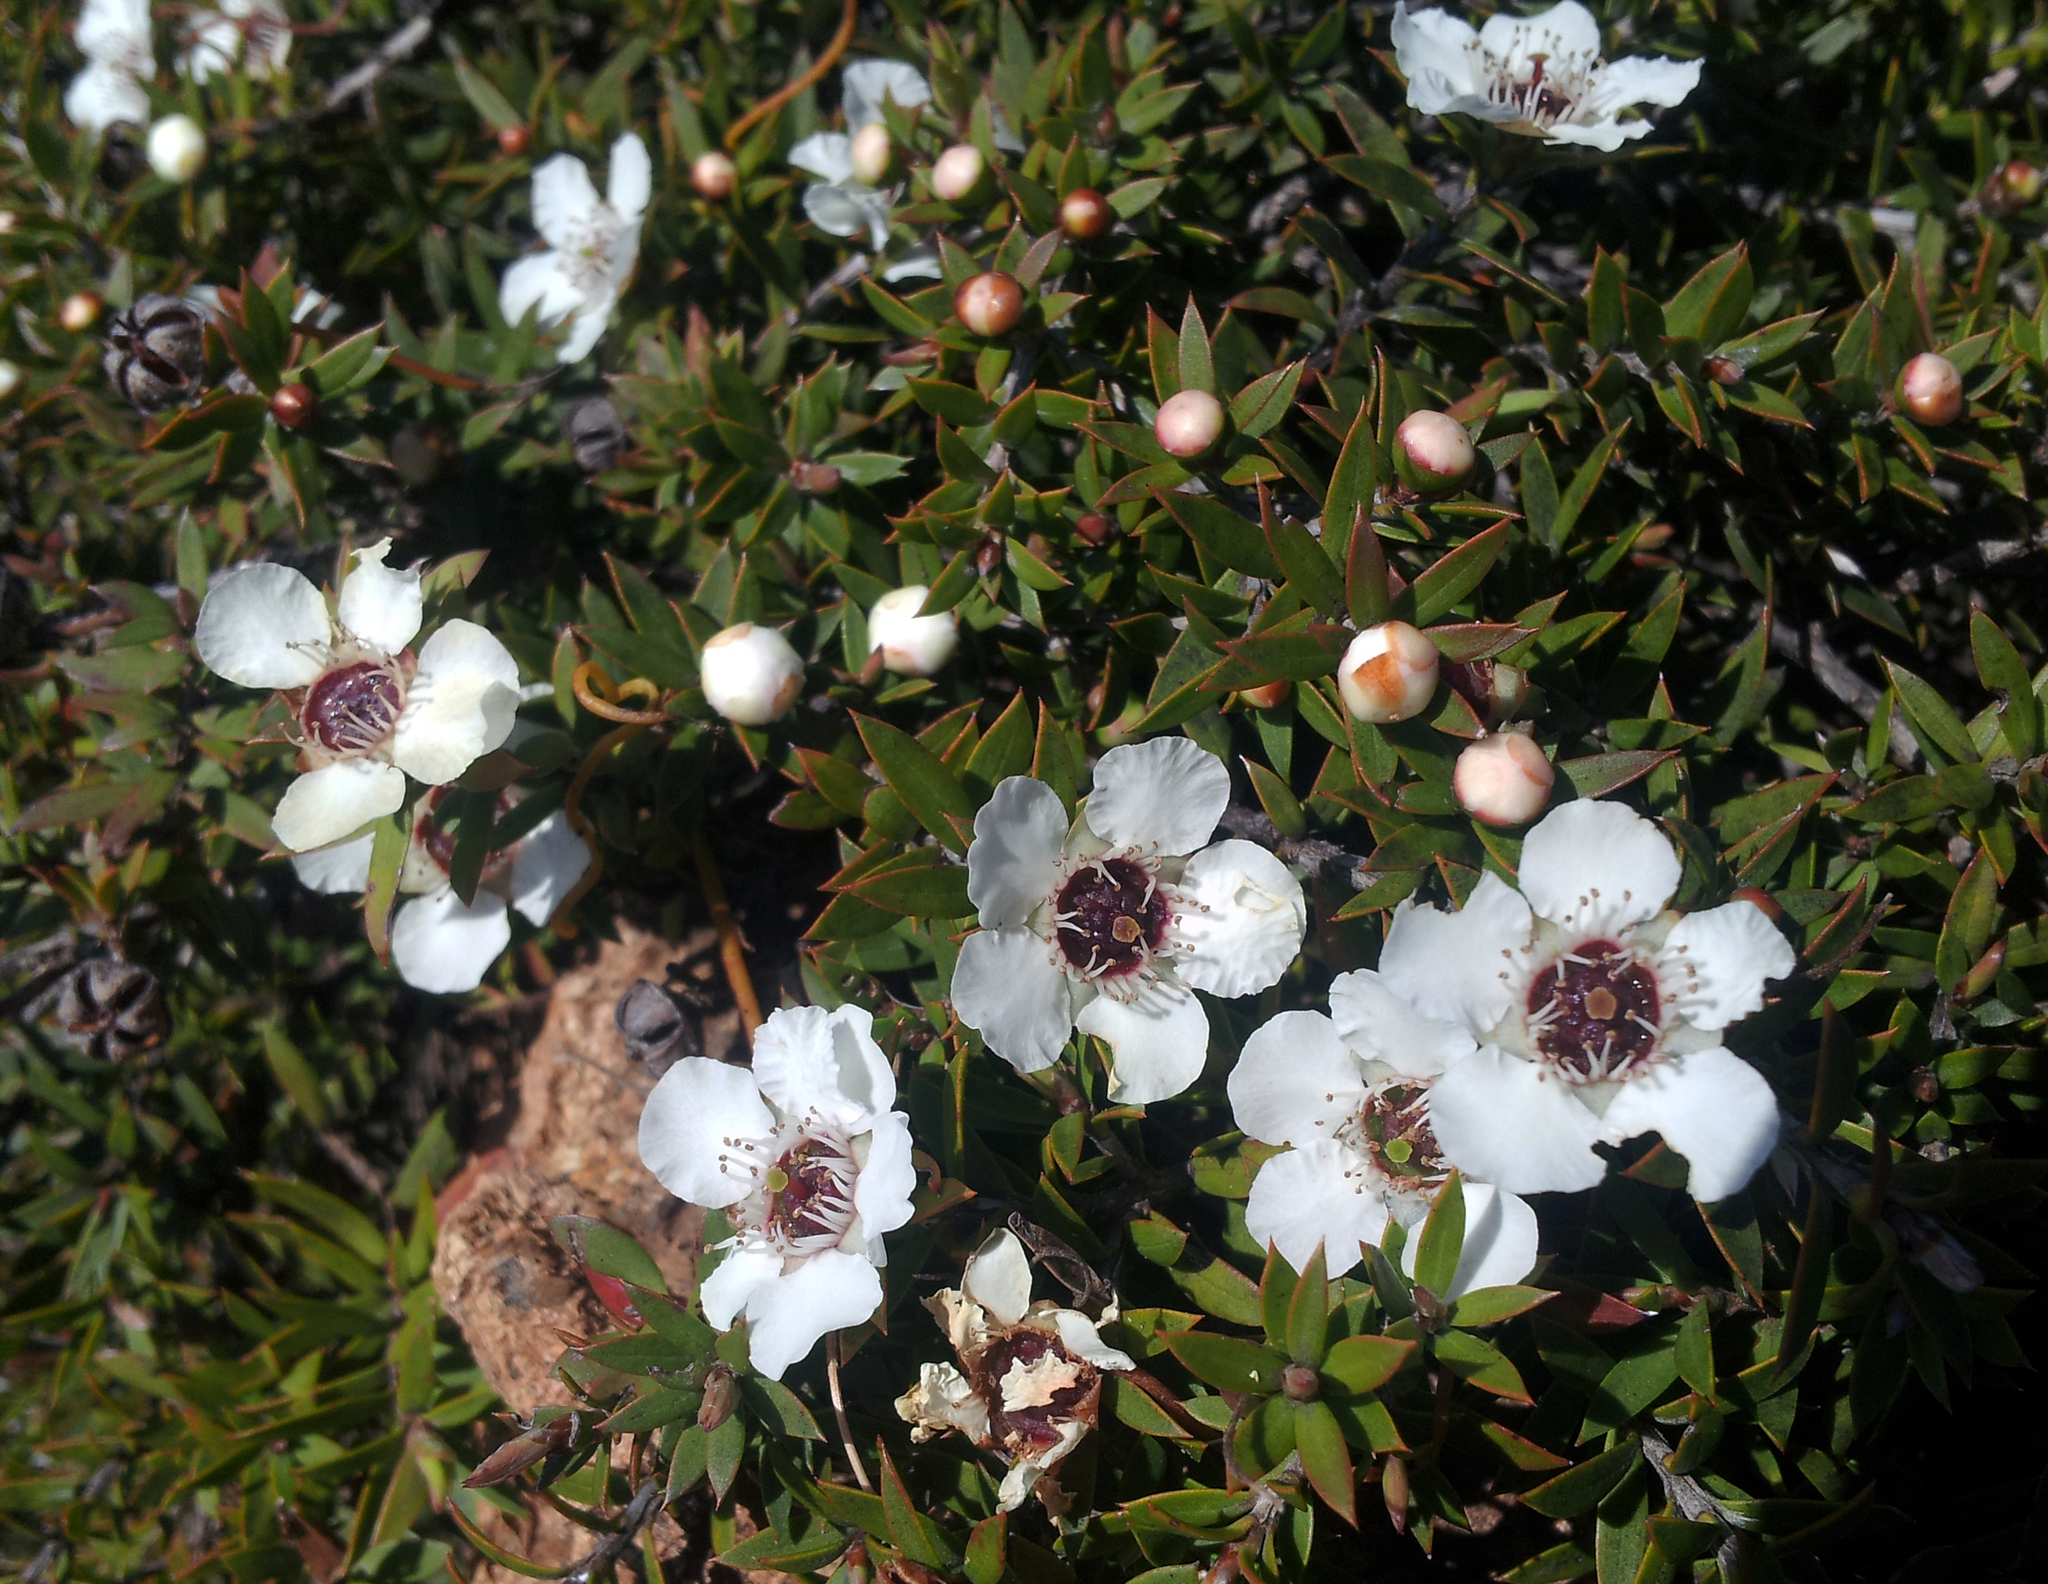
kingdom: Plantae
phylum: Tracheophyta
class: Magnoliopsida
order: Myrtales
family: Myrtaceae
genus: Leptospermum
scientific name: Leptospermum scoparium
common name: Broom tea-tree
